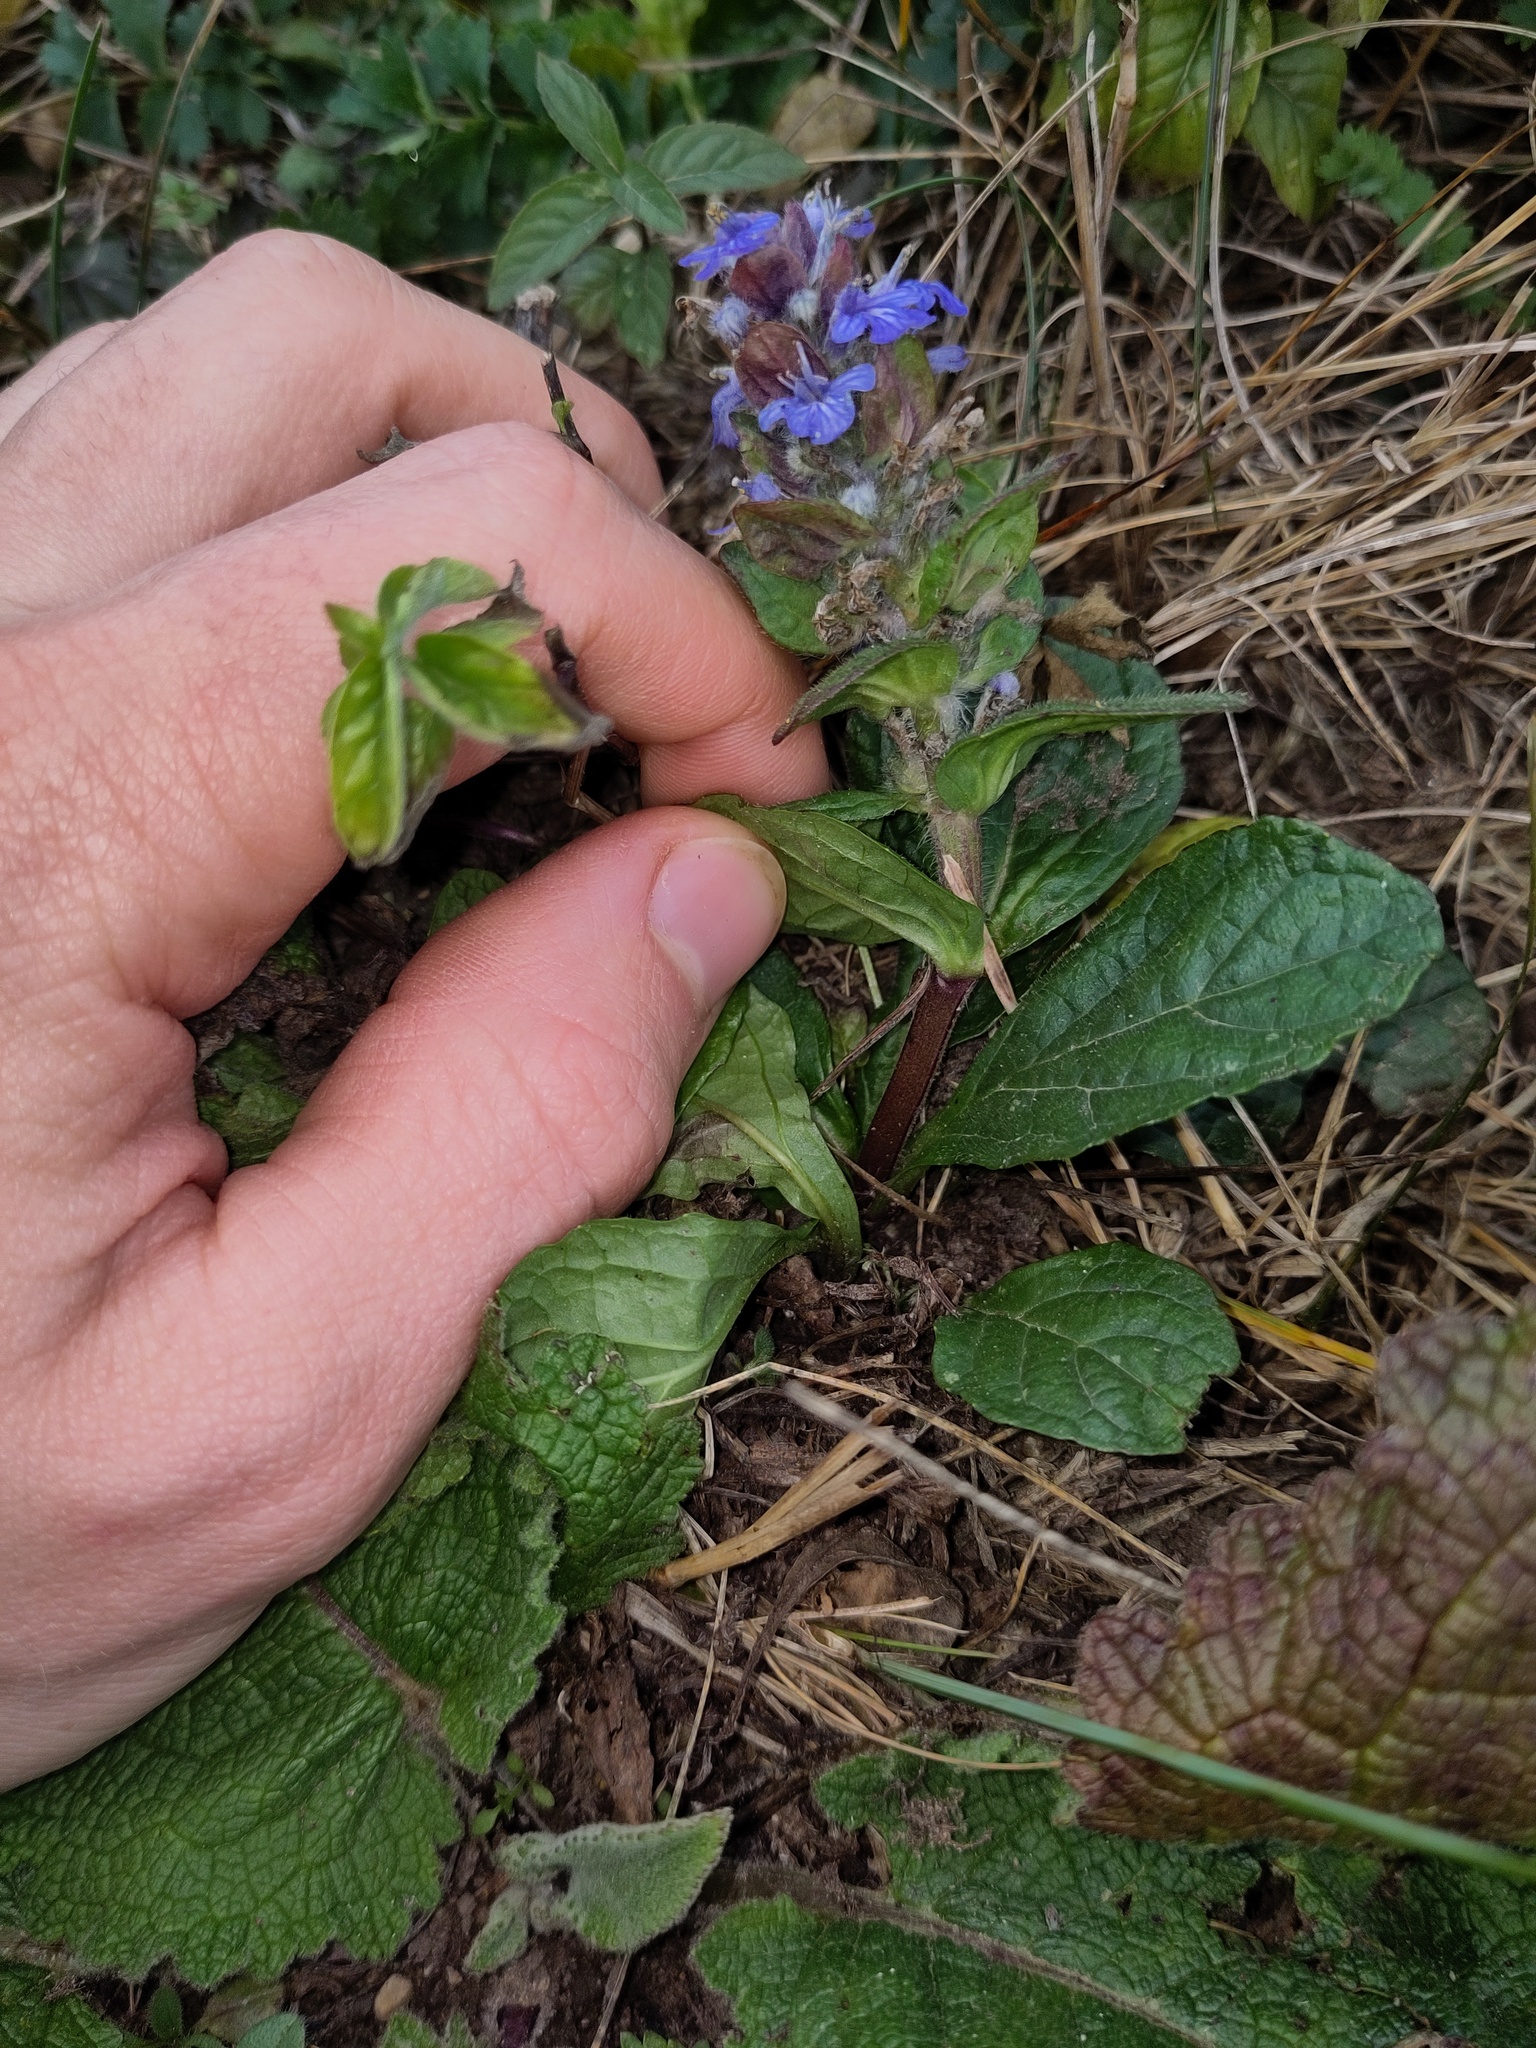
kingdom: Plantae
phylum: Tracheophyta
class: Magnoliopsida
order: Lamiales
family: Lamiaceae
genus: Ajuga
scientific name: Ajuga reptans
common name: Bugle
